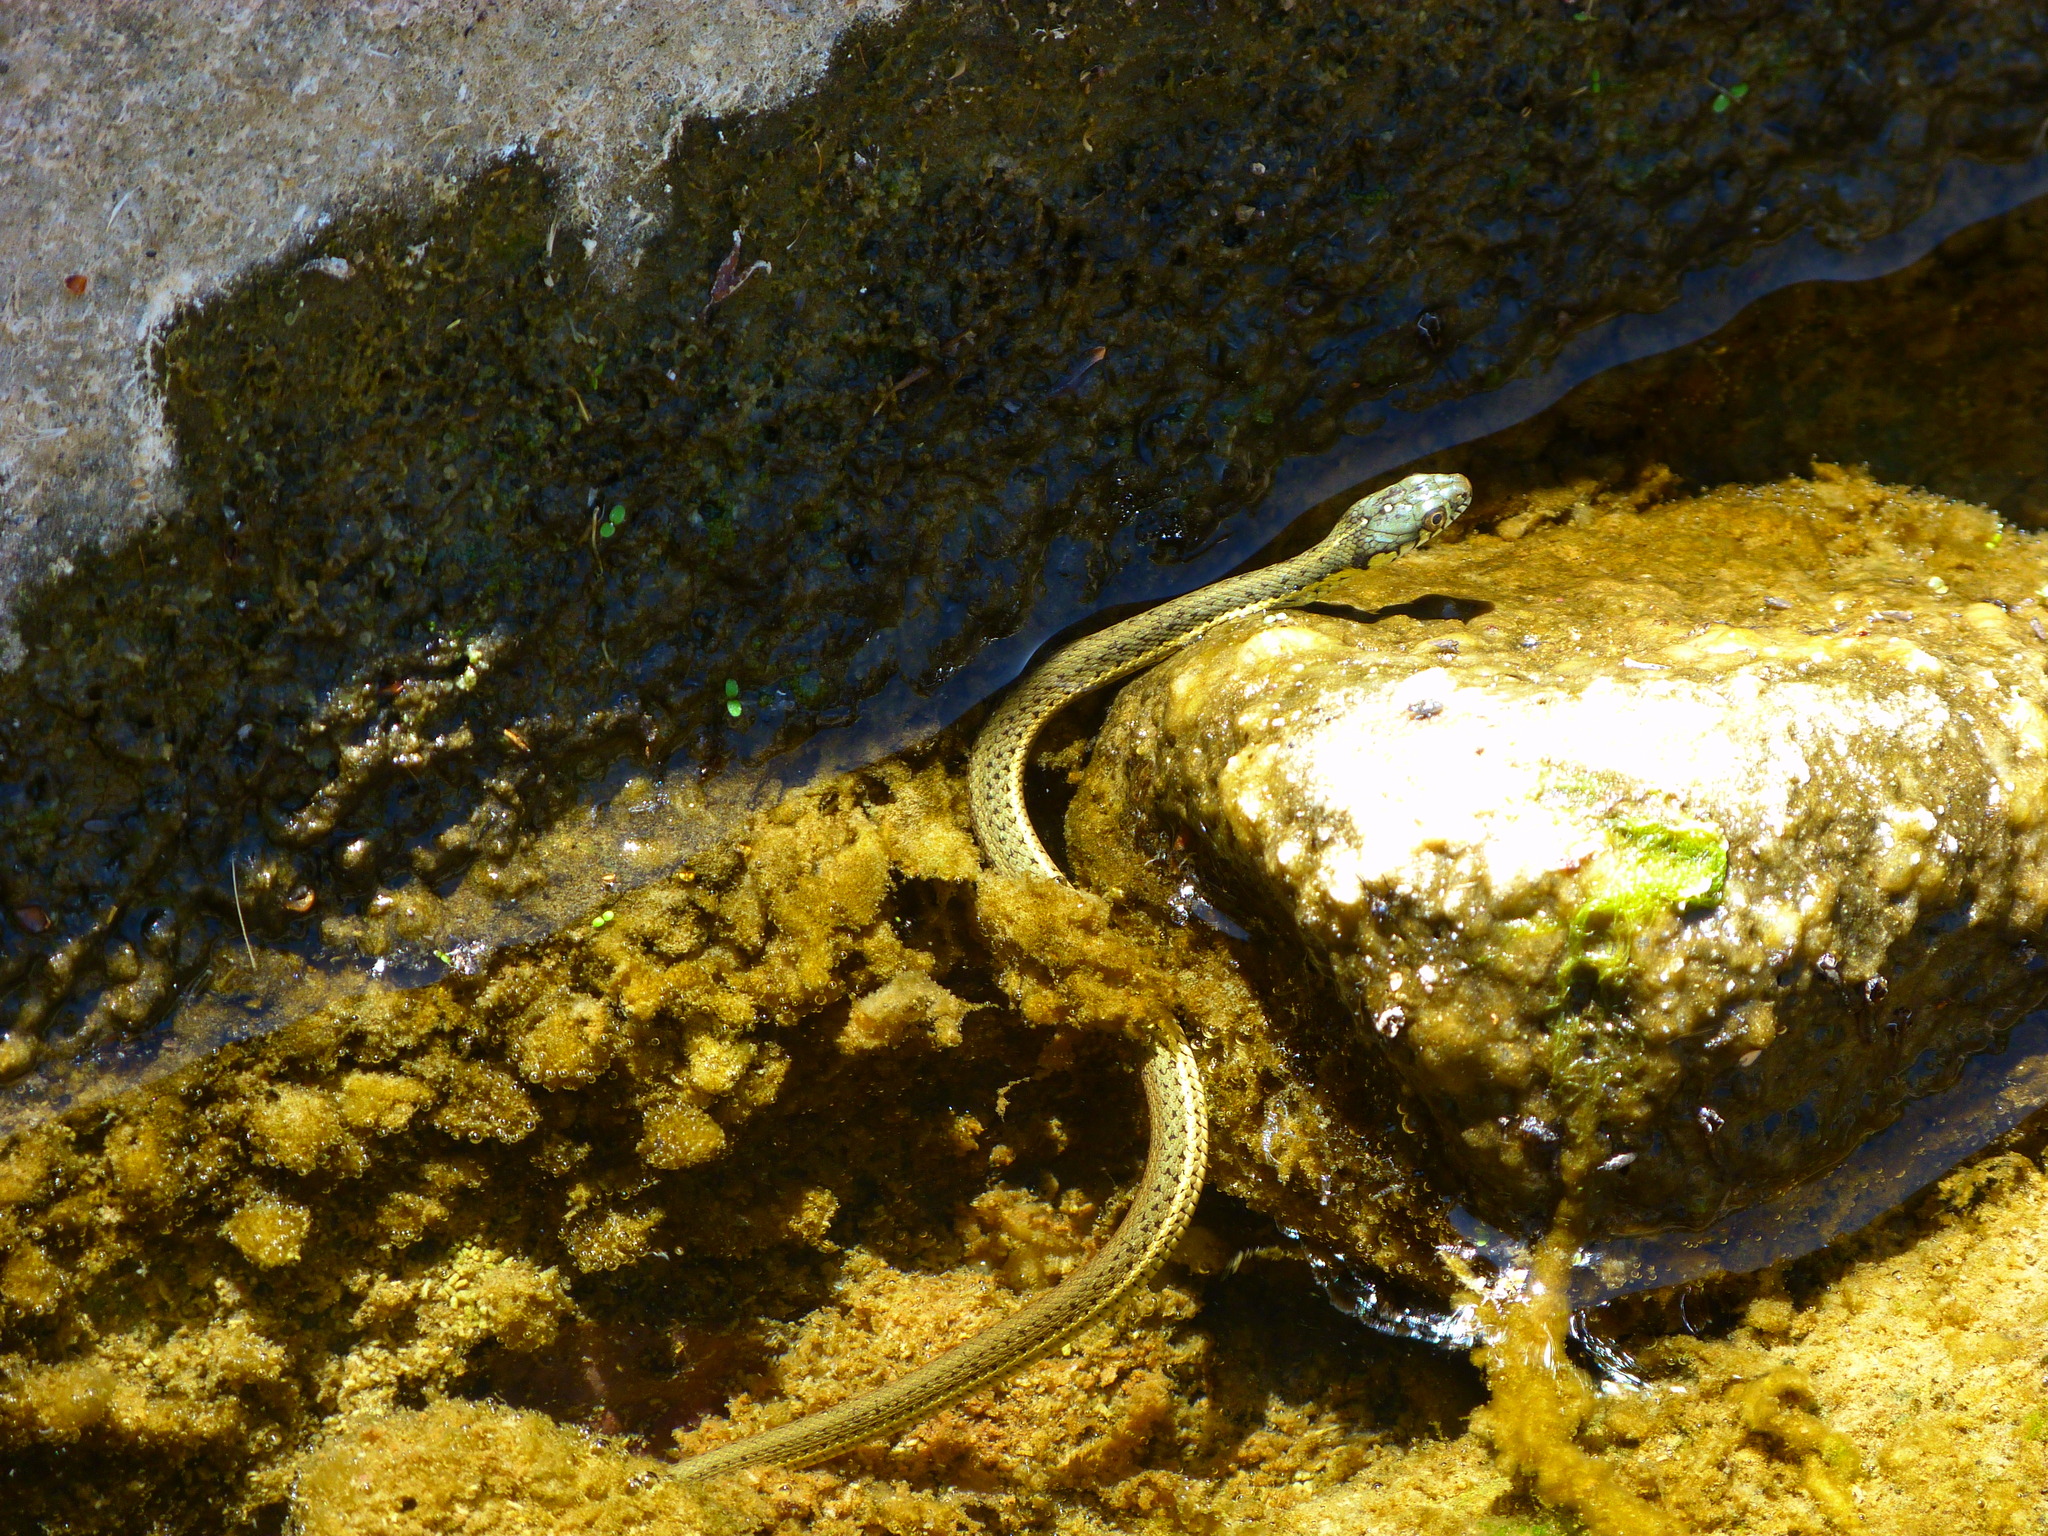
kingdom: Animalia
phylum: Chordata
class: Squamata
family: Colubridae
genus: Thamnophis
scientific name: Thamnophis hammondii
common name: Two-striped garter snake
